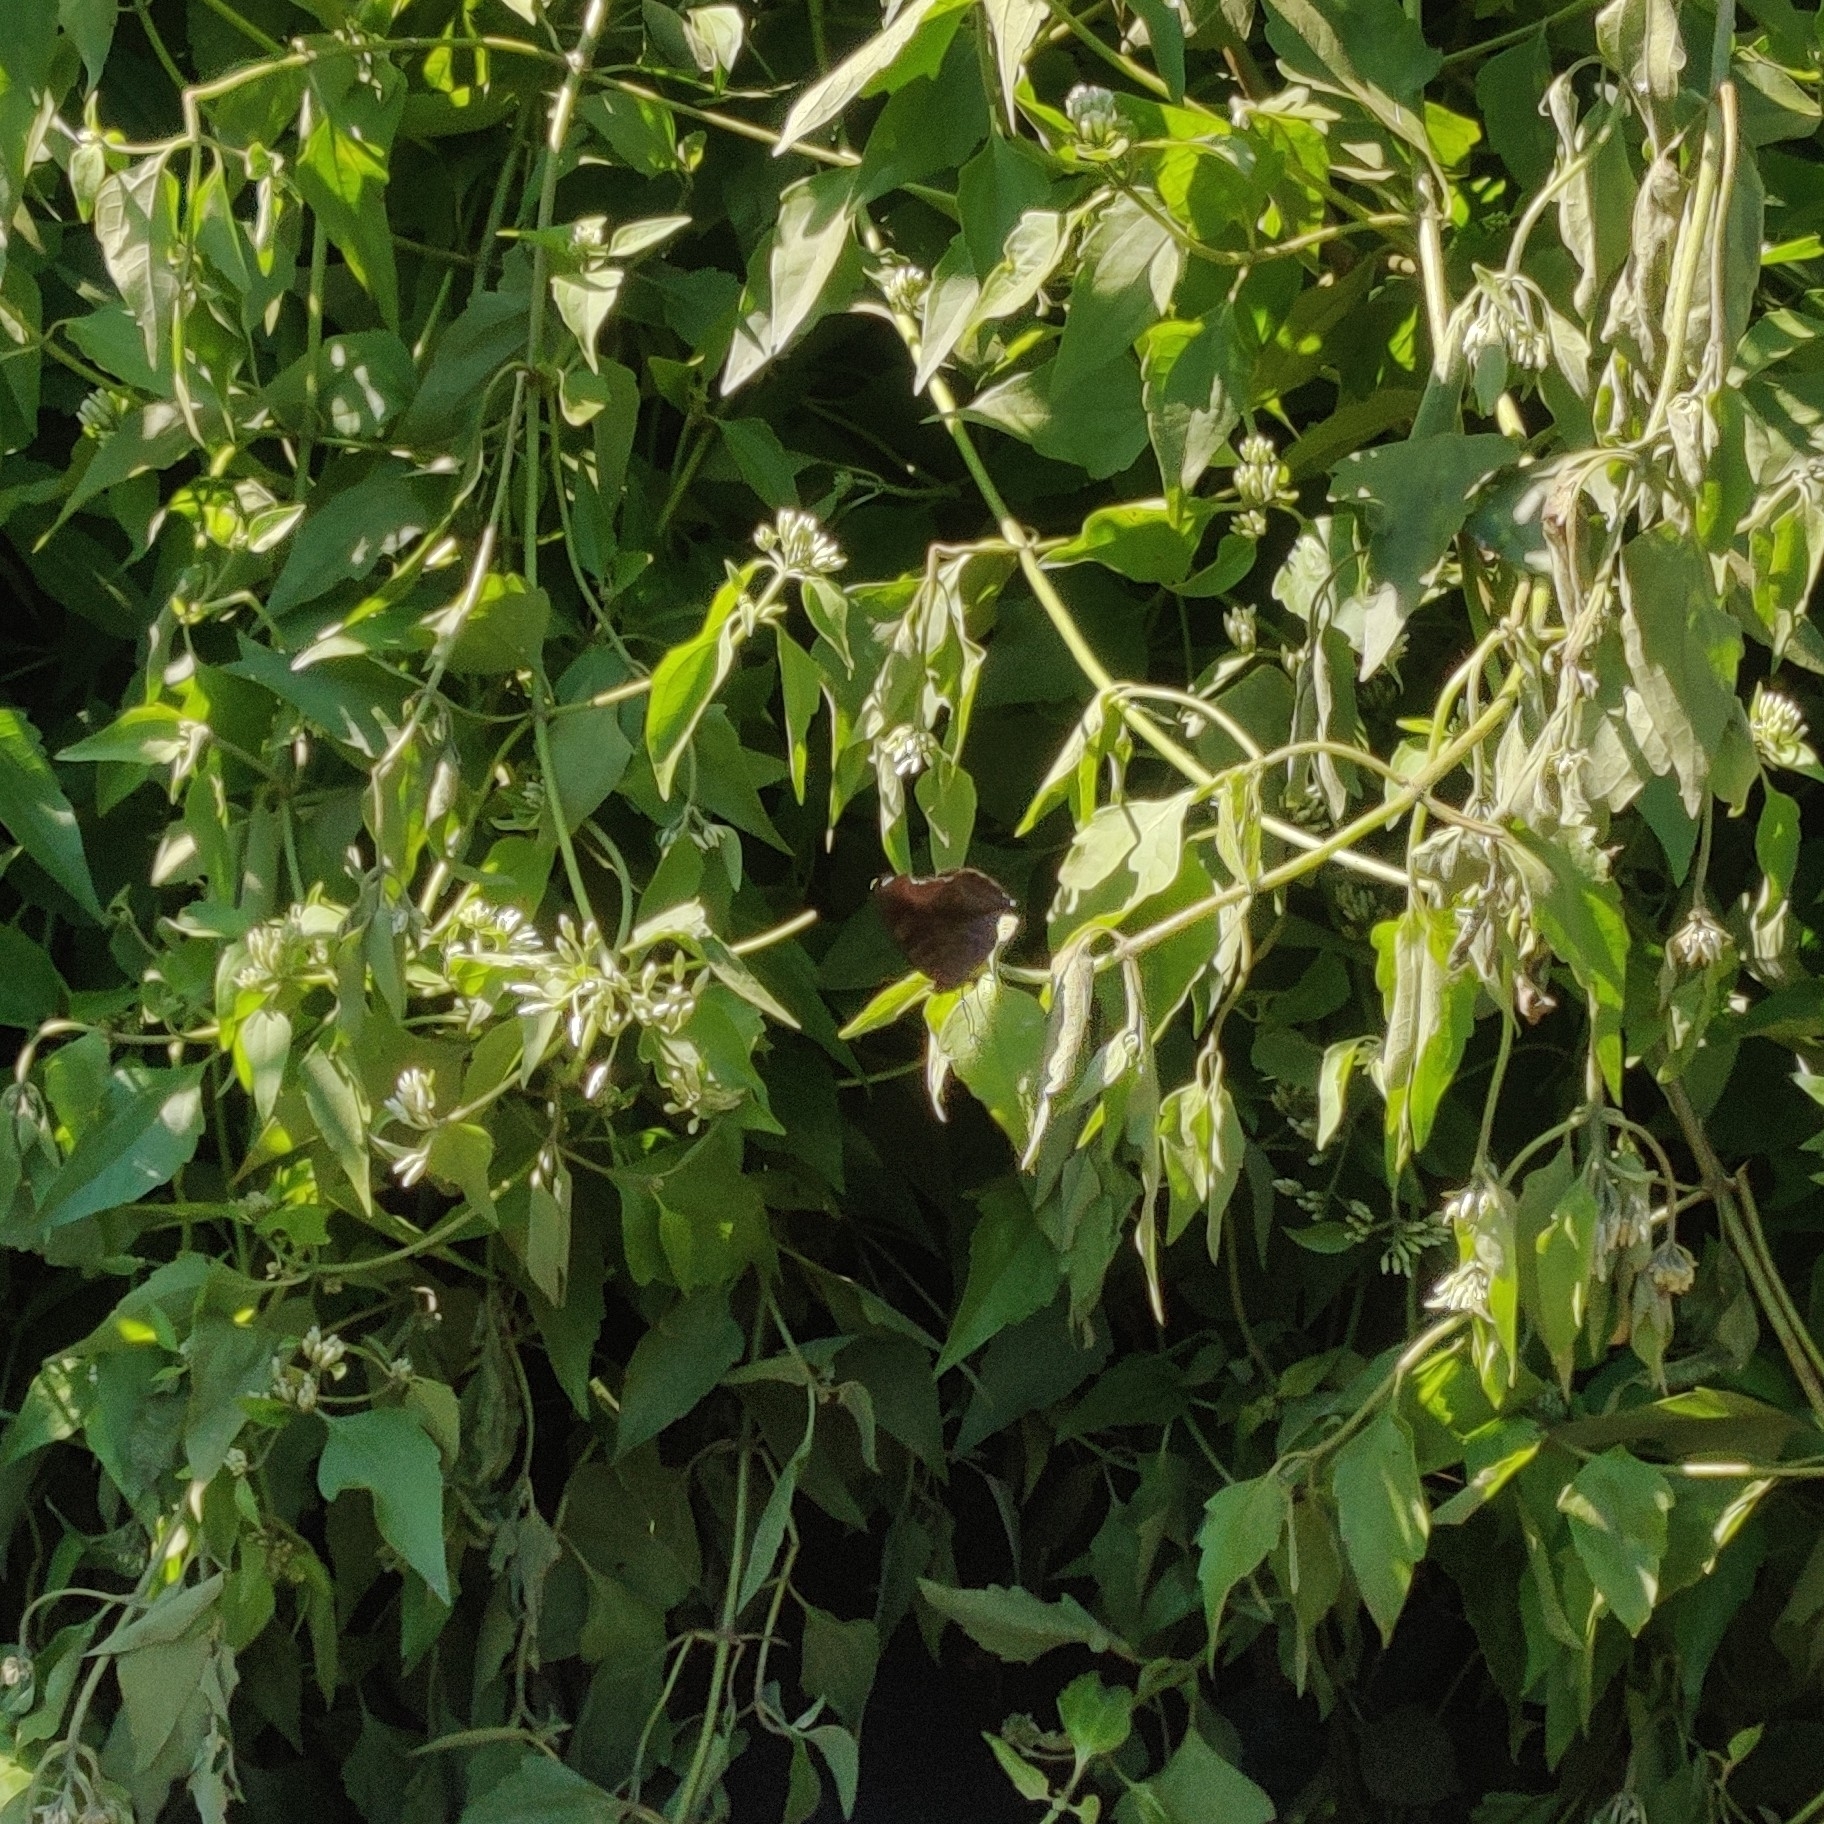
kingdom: Animalia
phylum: Arthropoda
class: Insecta
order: Lepidoptera
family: Nymphalidae
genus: Junonia
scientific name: Junonia iphita
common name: Chocolate pansy
